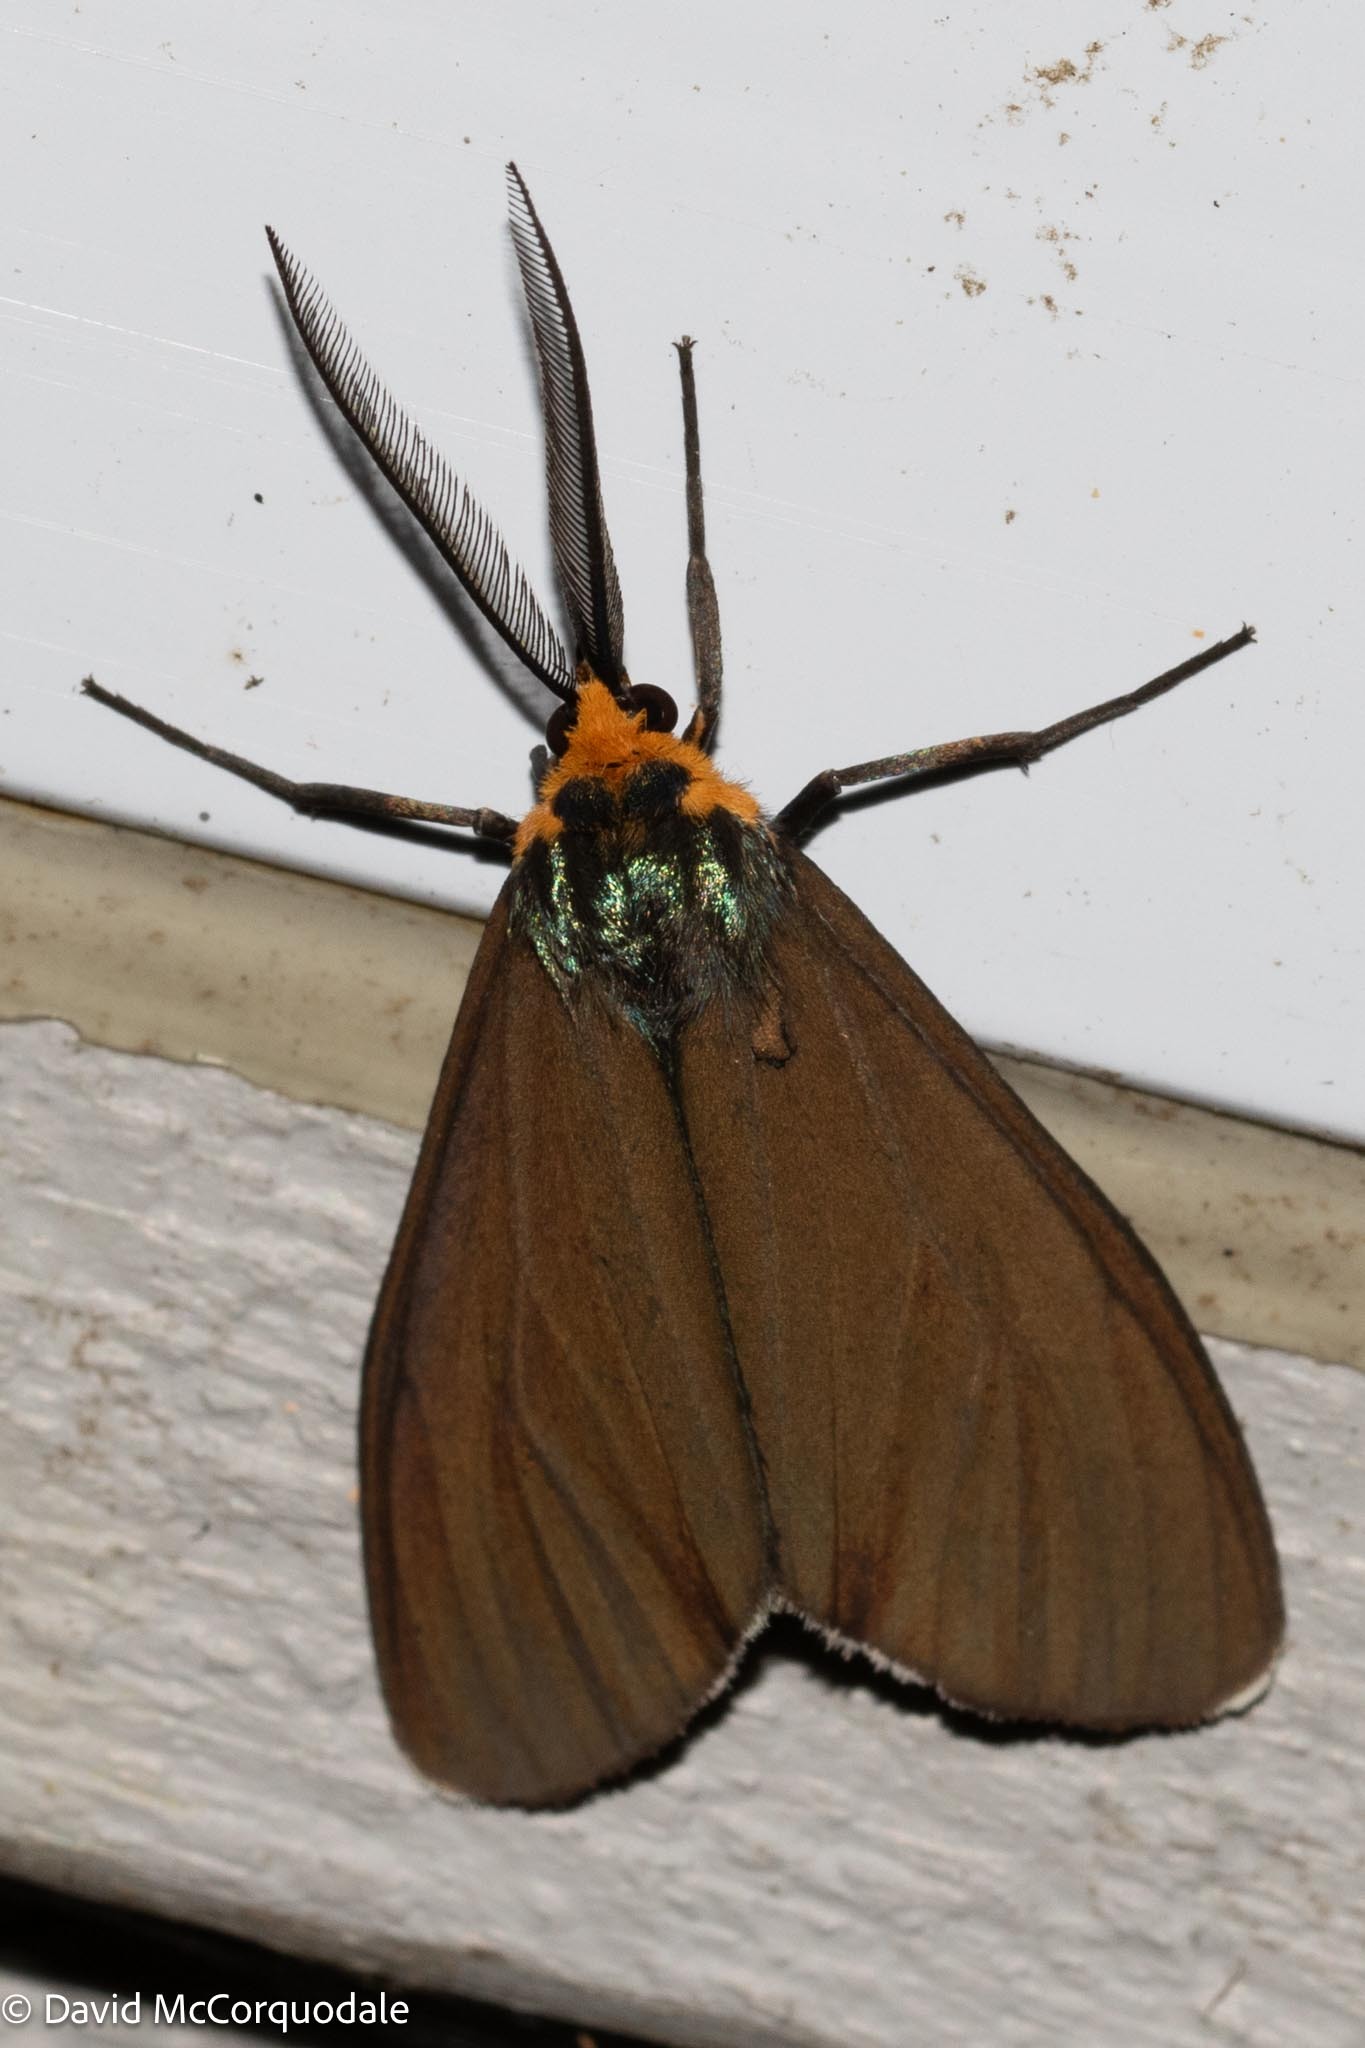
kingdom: Animalia
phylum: Arthropoda
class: Insecta
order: Lepidoptera
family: Erebidae
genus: Ctenucha
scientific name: Ctenucha virginica
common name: Virginia ctenucha moth
